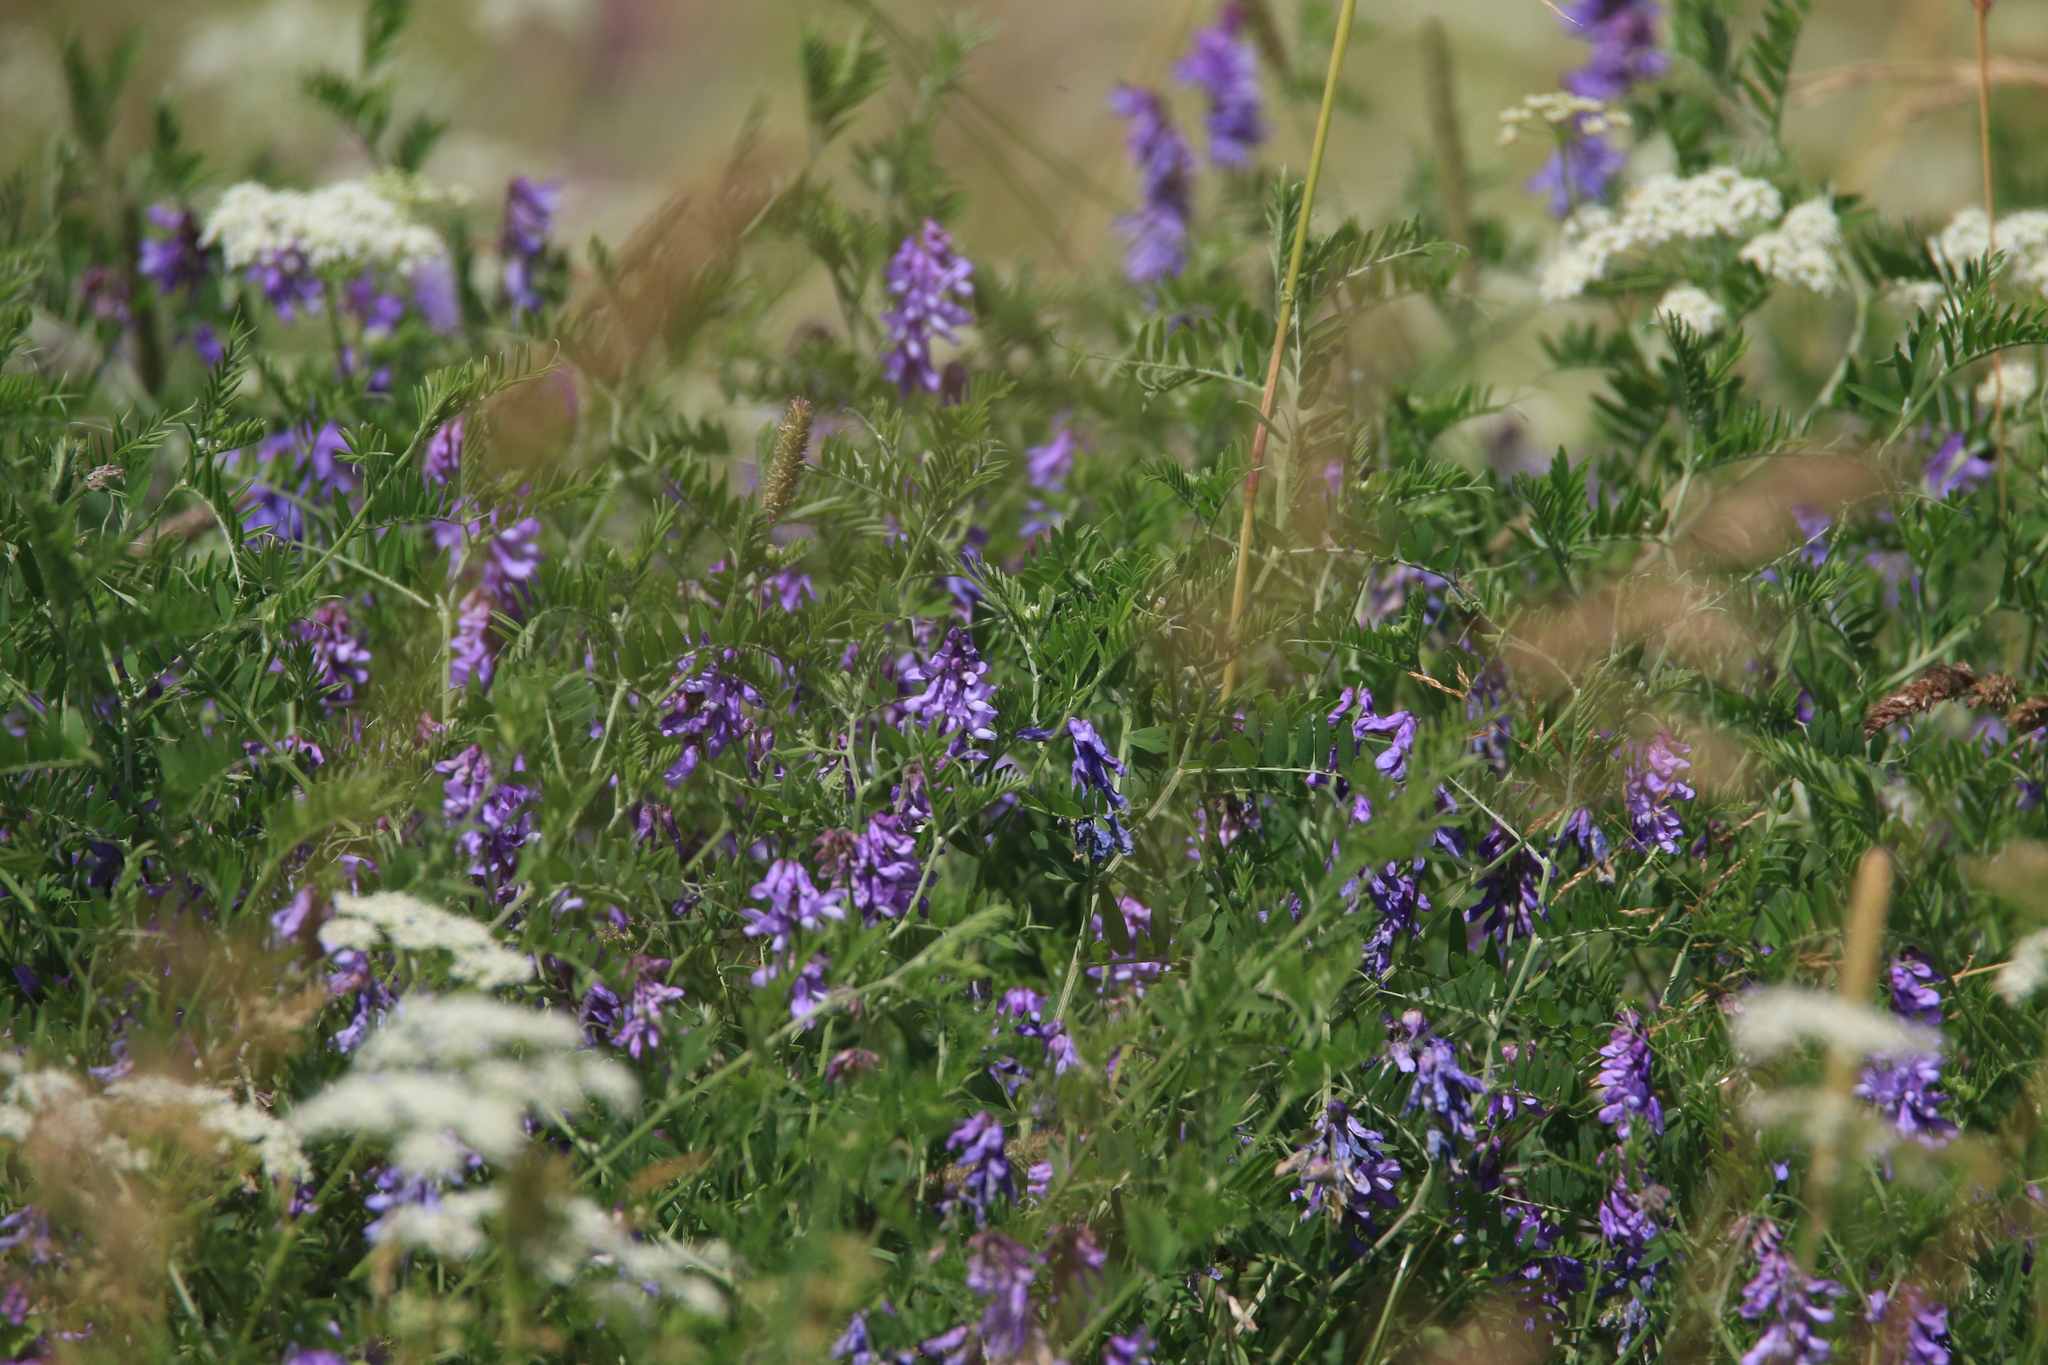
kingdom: Plantae
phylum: Tracheophyta
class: Magnoliopsida
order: Fabales
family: Fabaceae
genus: Vicia
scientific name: Vicia cracca
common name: Bird vetch
